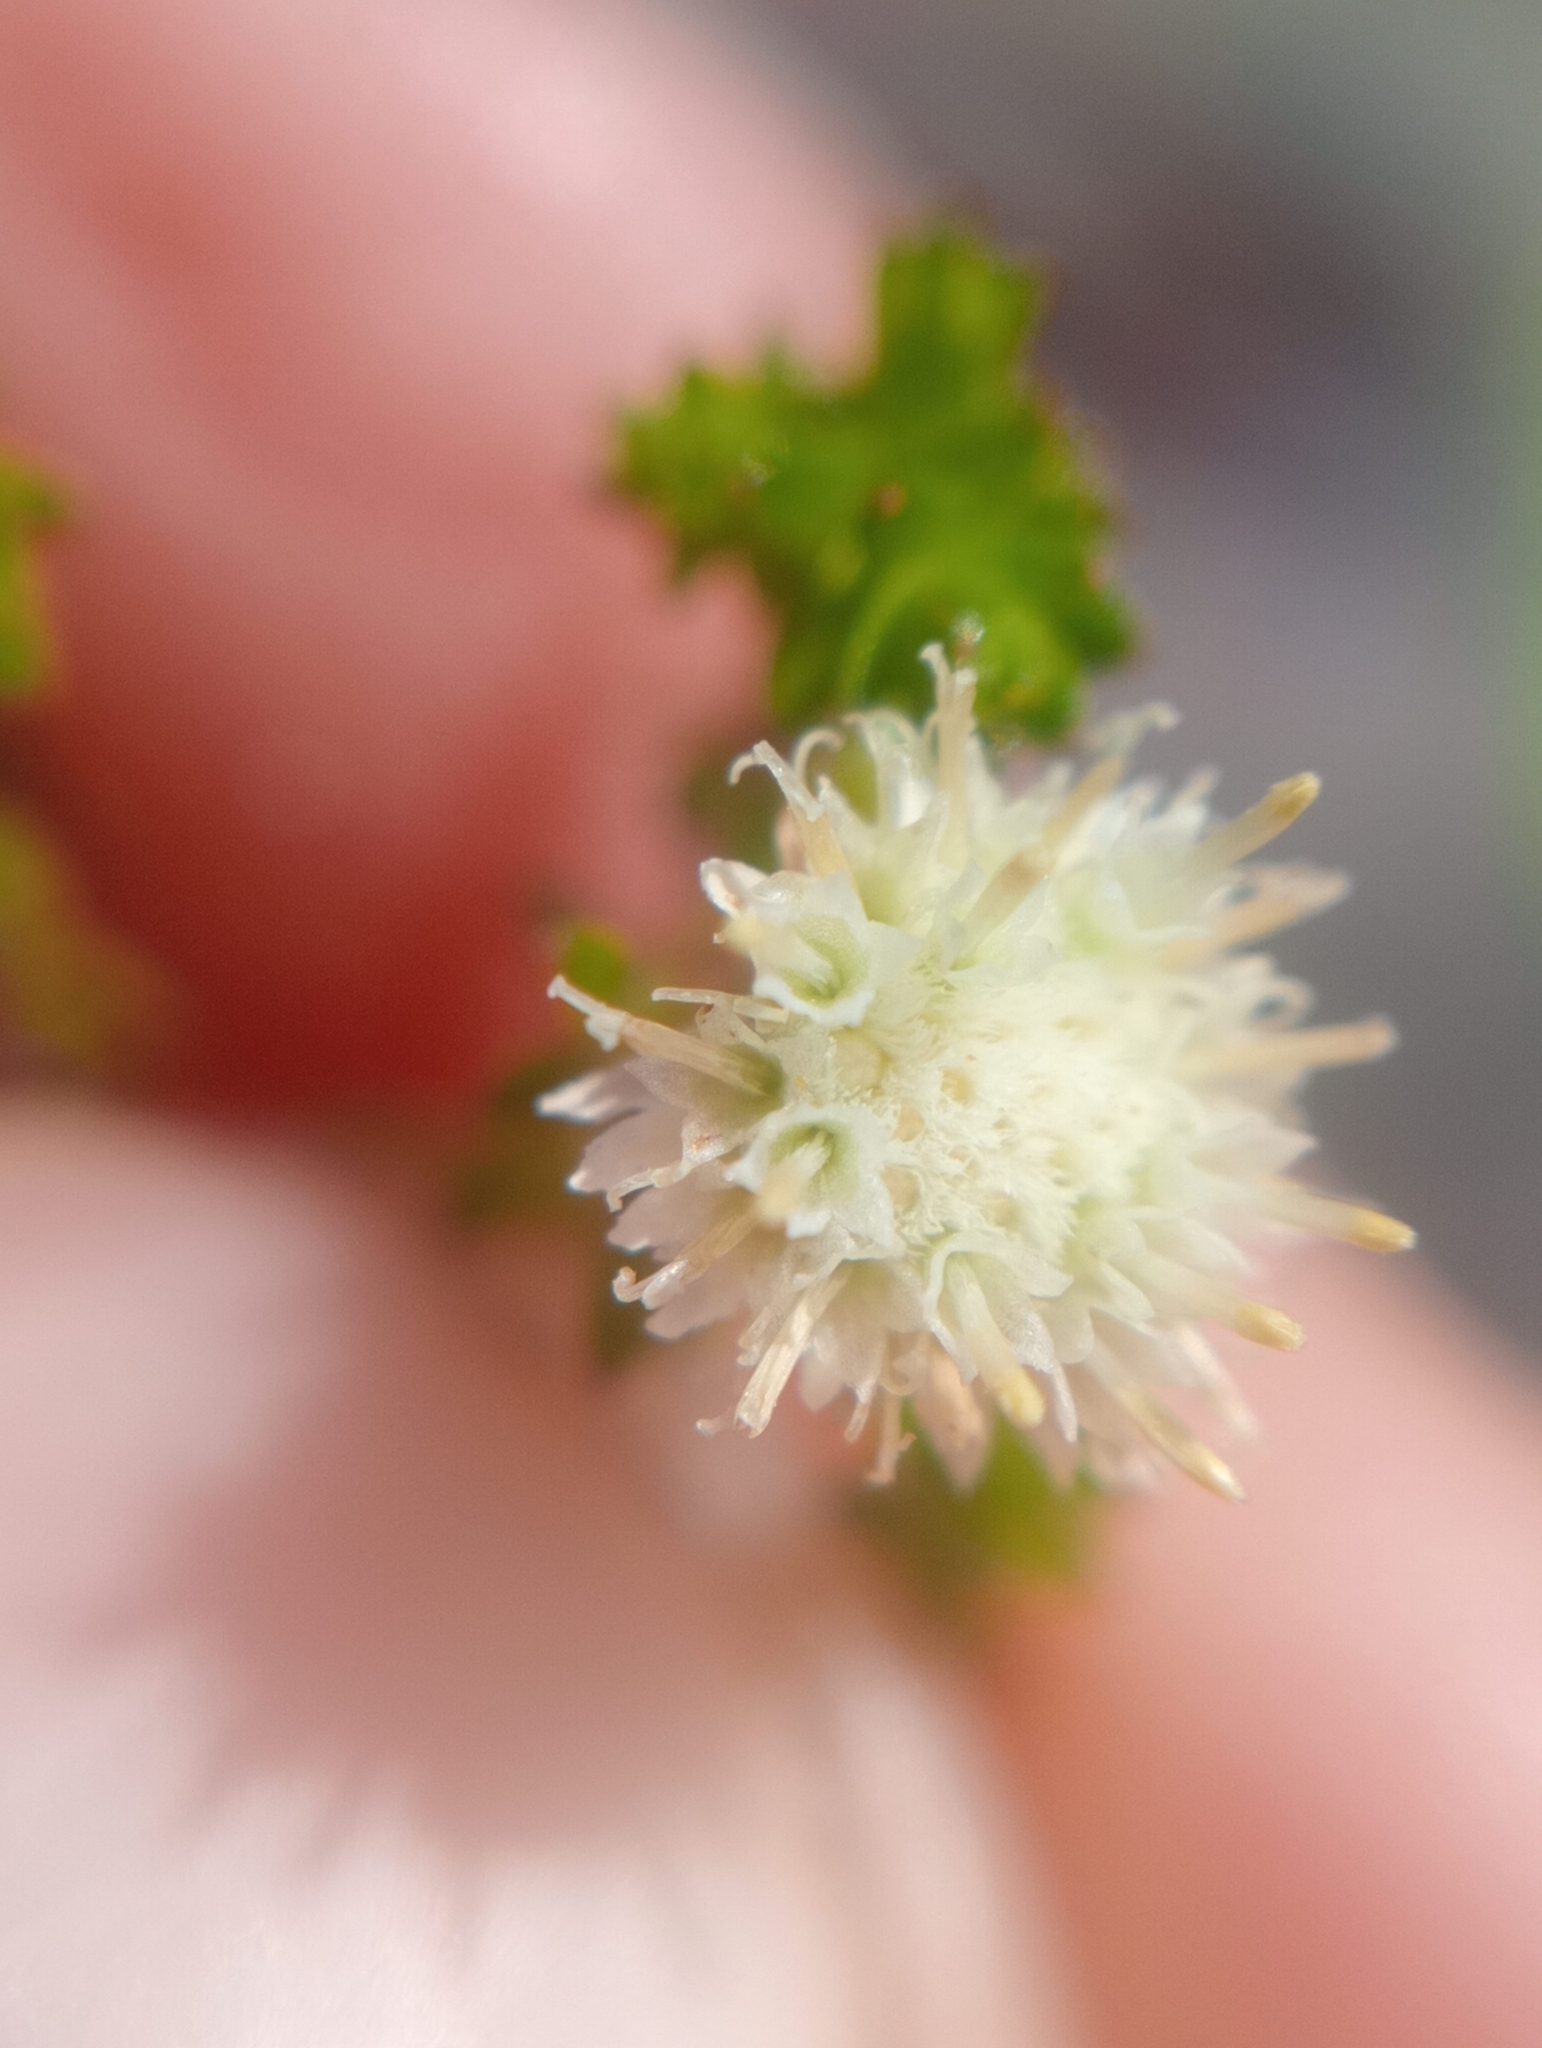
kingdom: Plantae
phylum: Tracheophyta
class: Magnoliopsida
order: Asterales
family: Asteraceae
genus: Raoulia
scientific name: Raoulia glabra
